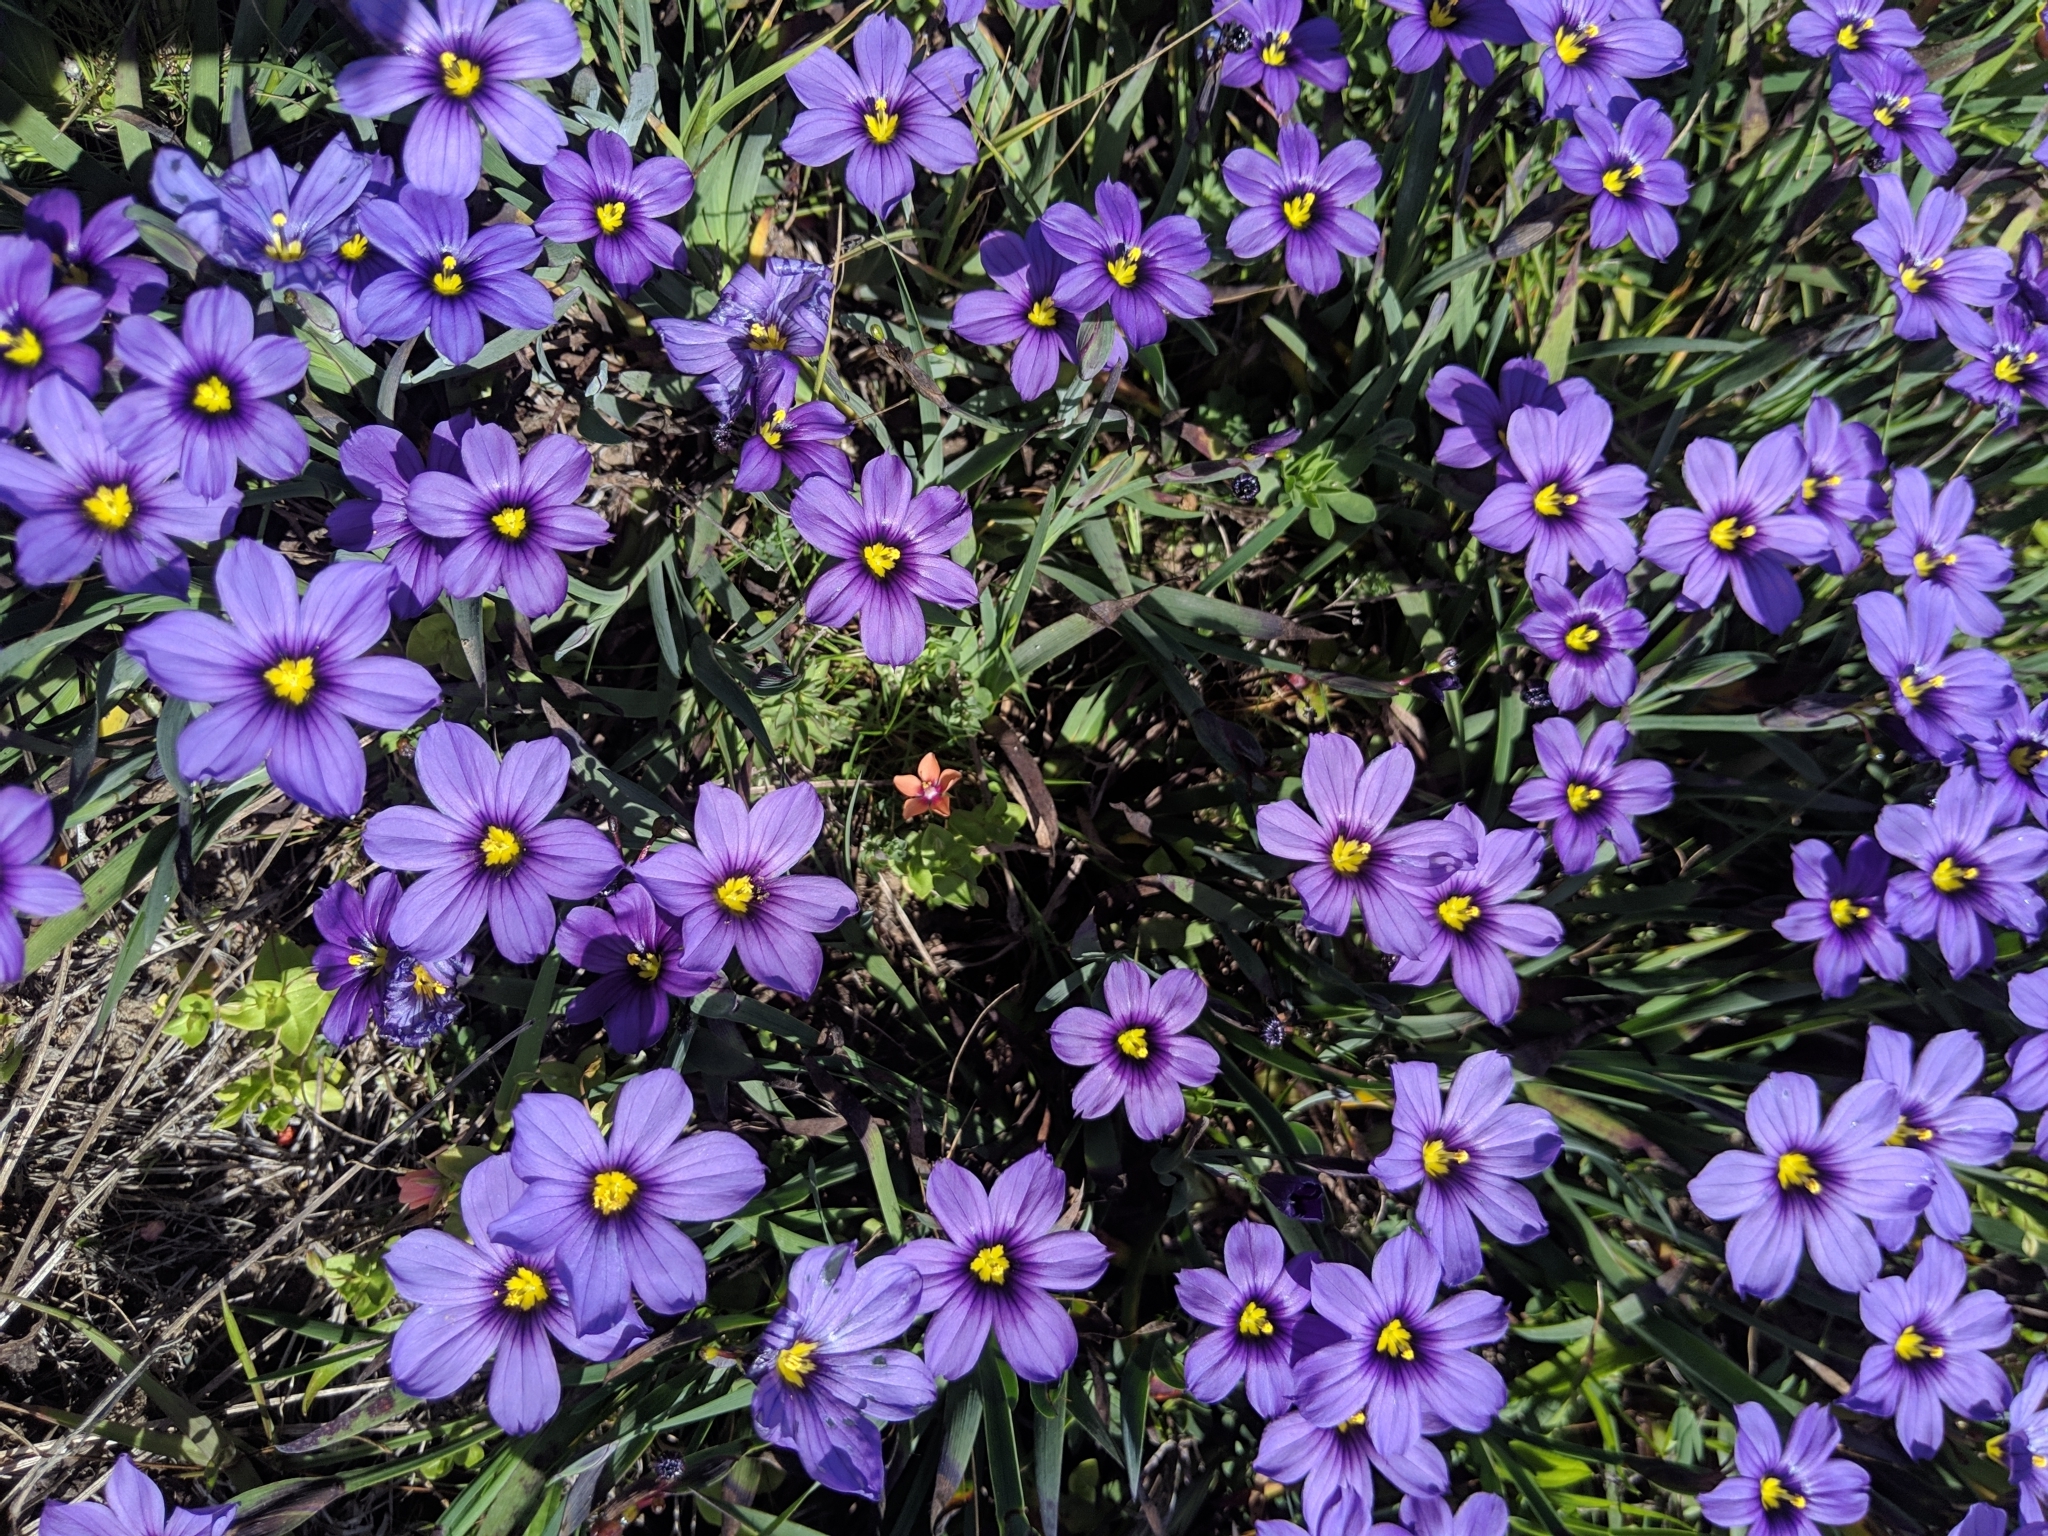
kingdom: Plantae
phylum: Tracheophyta
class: Liliopsida
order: Asparagales
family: Iridaceae
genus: Sisyrinchium
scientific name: Sisyrinchium bellum
